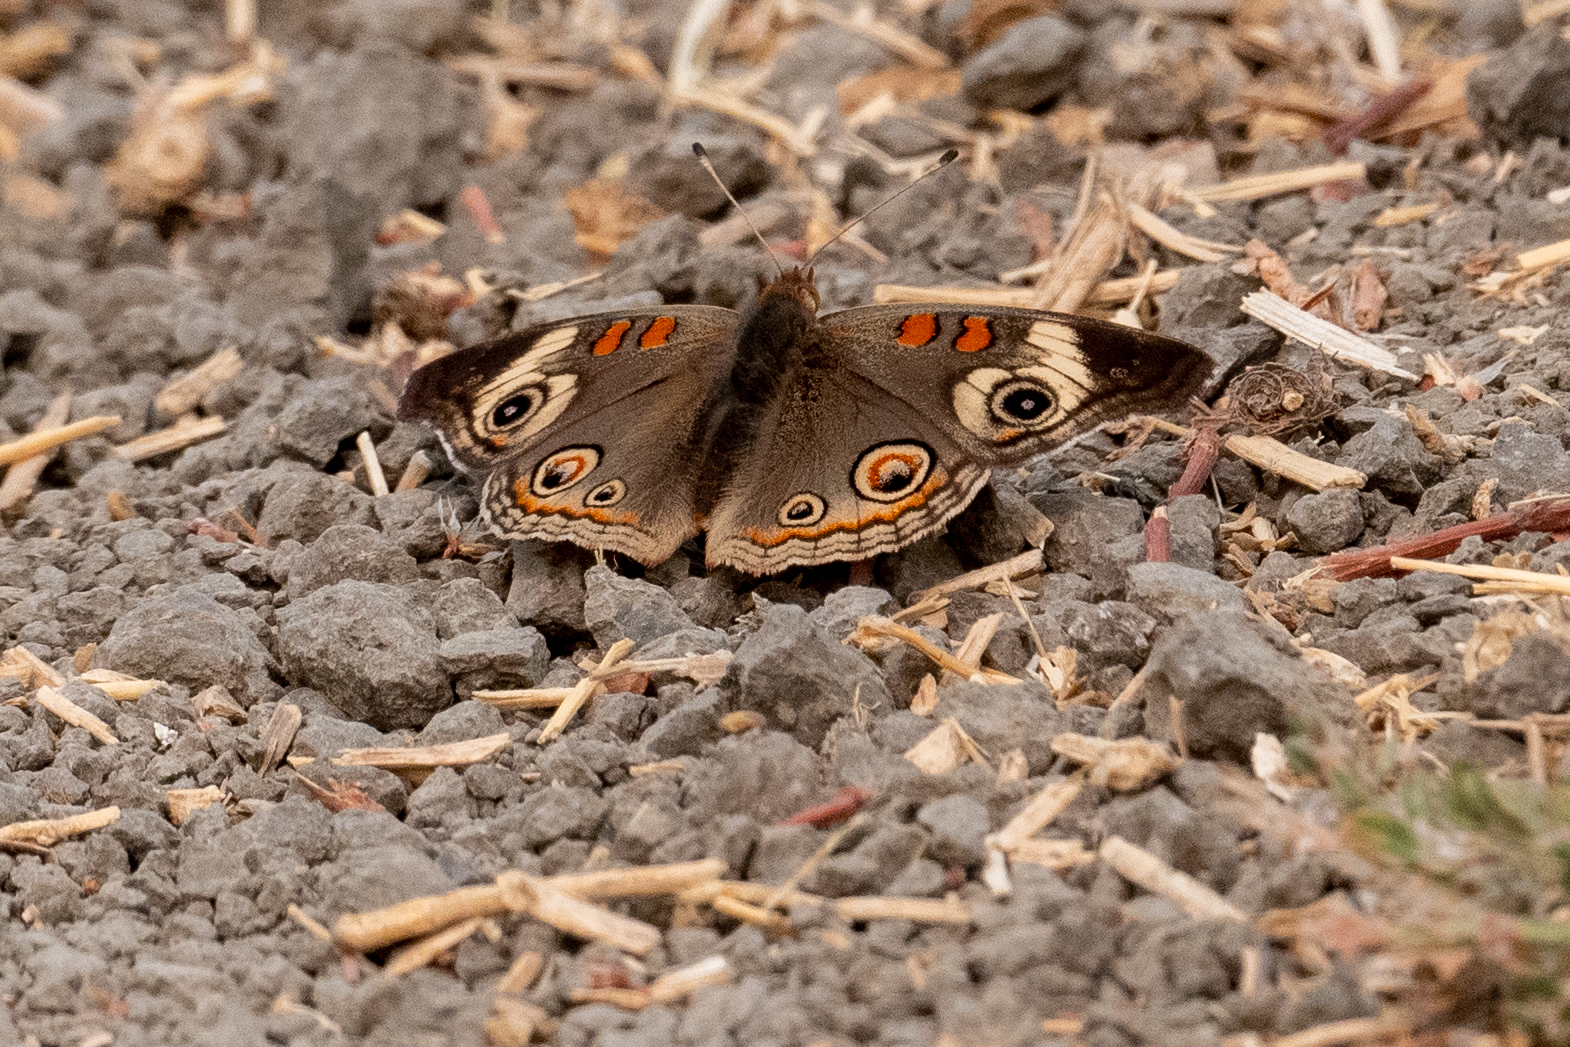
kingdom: Animalia
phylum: Arthropoda
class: Insecta
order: Lepidoptera
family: Nymphalidae
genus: Junonia
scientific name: Junonia grisea
